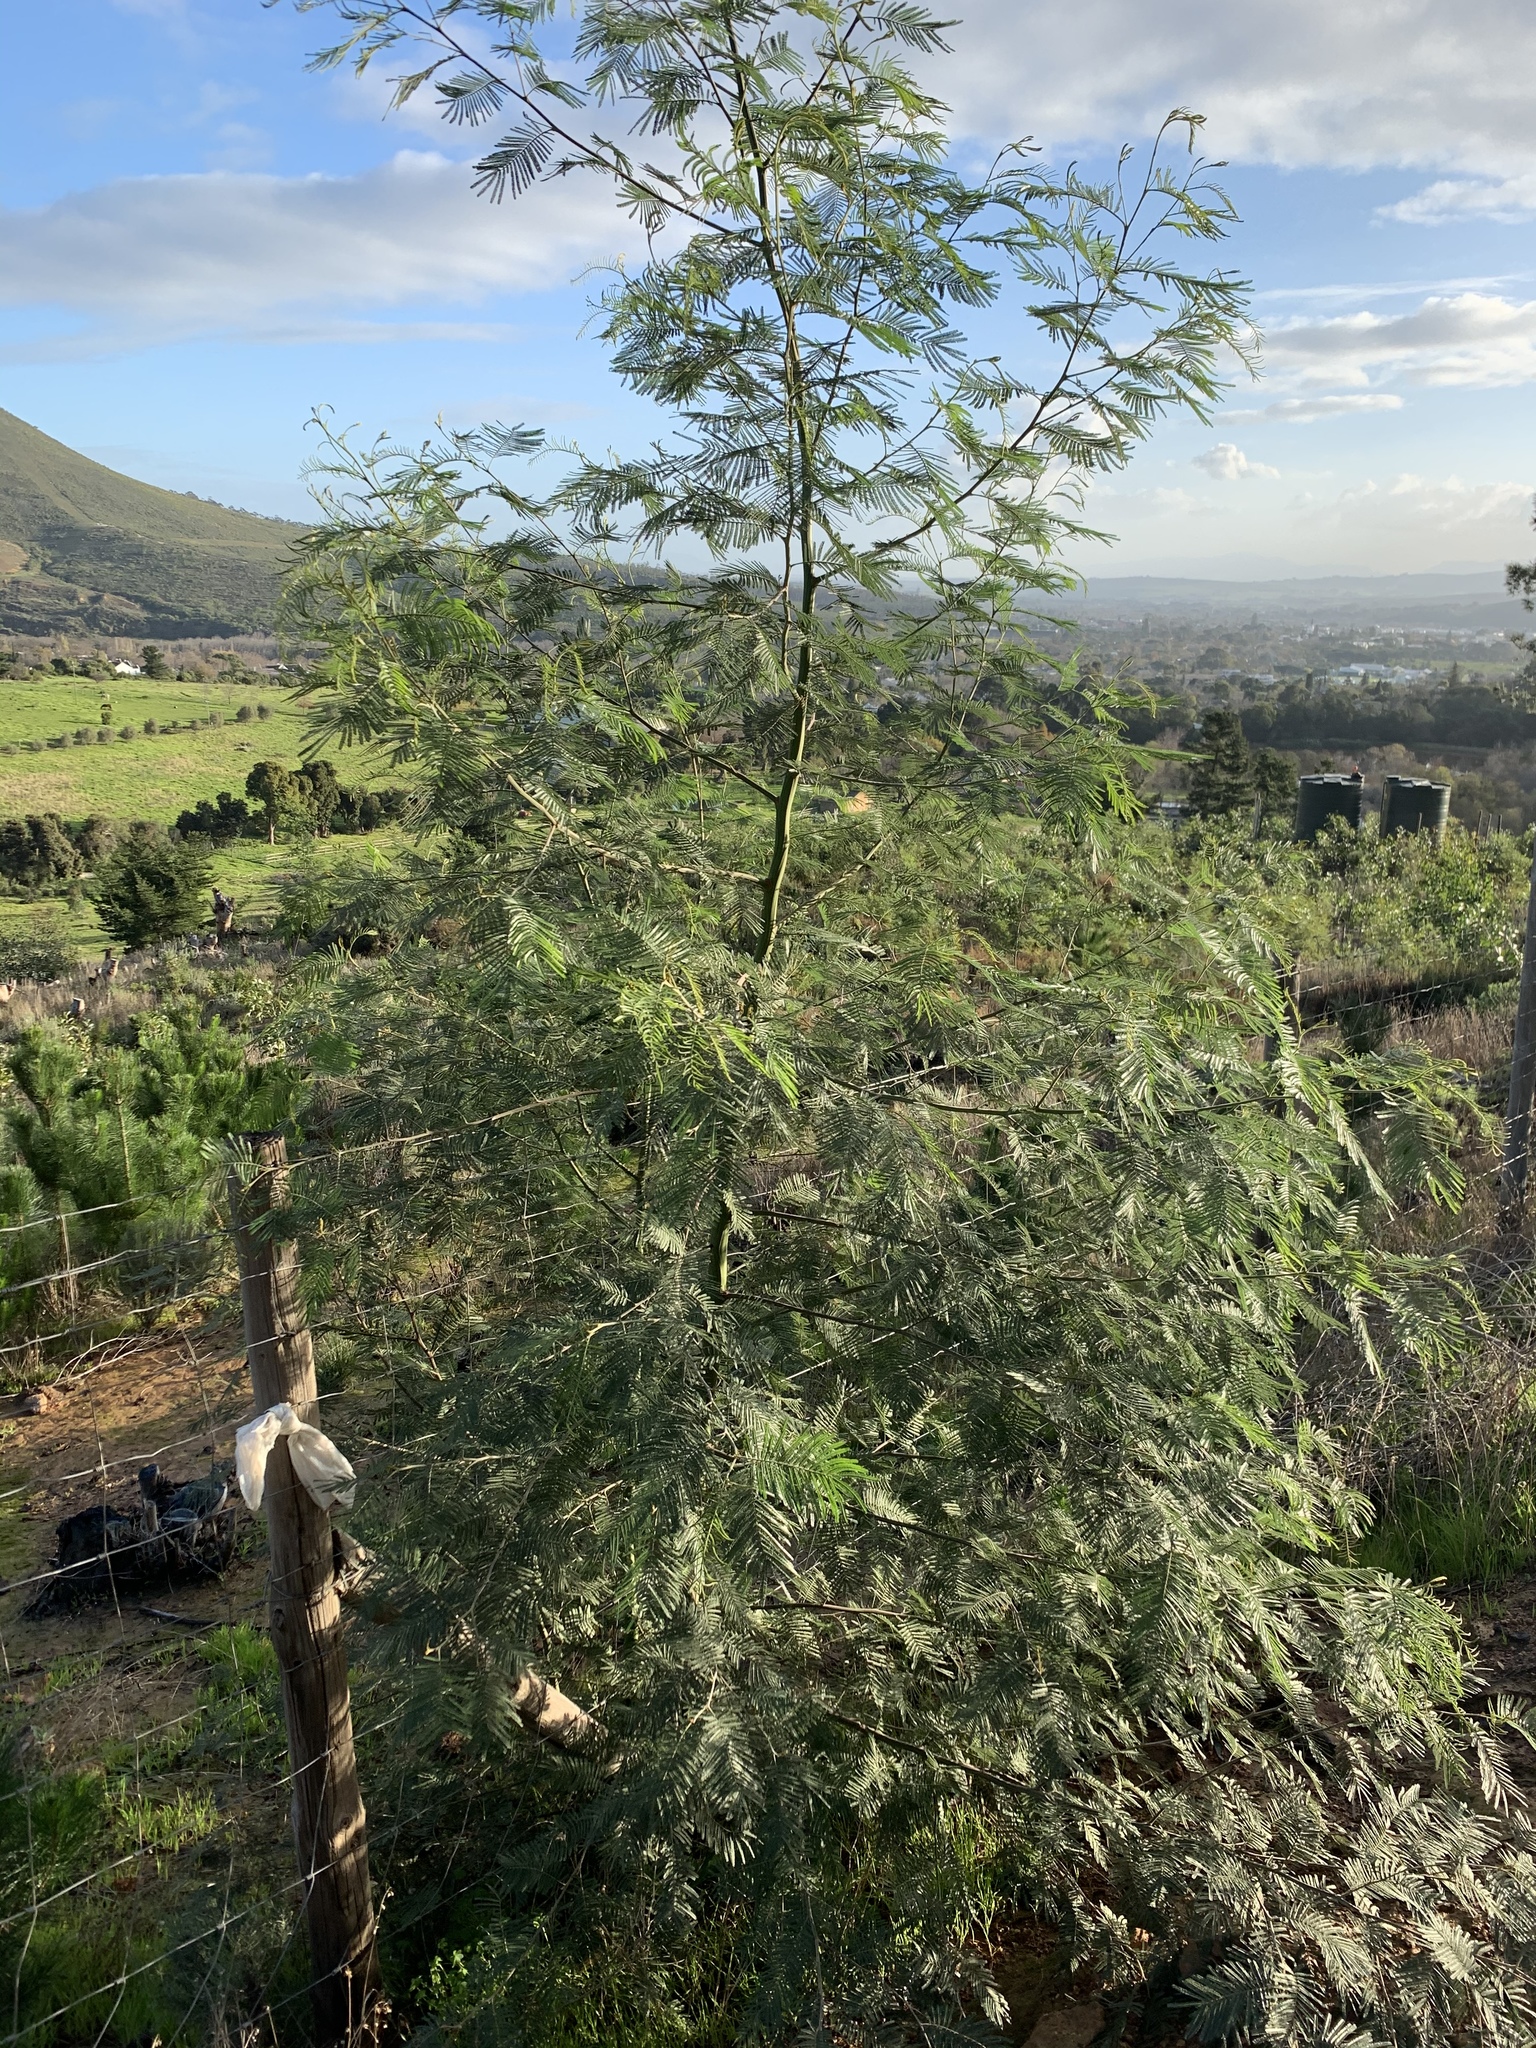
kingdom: Plantae
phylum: Tracheophyta
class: Magnoliopsida
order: Fabales
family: Fabaceae
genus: Acacia
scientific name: Acacia mearnsii
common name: Black wattle
